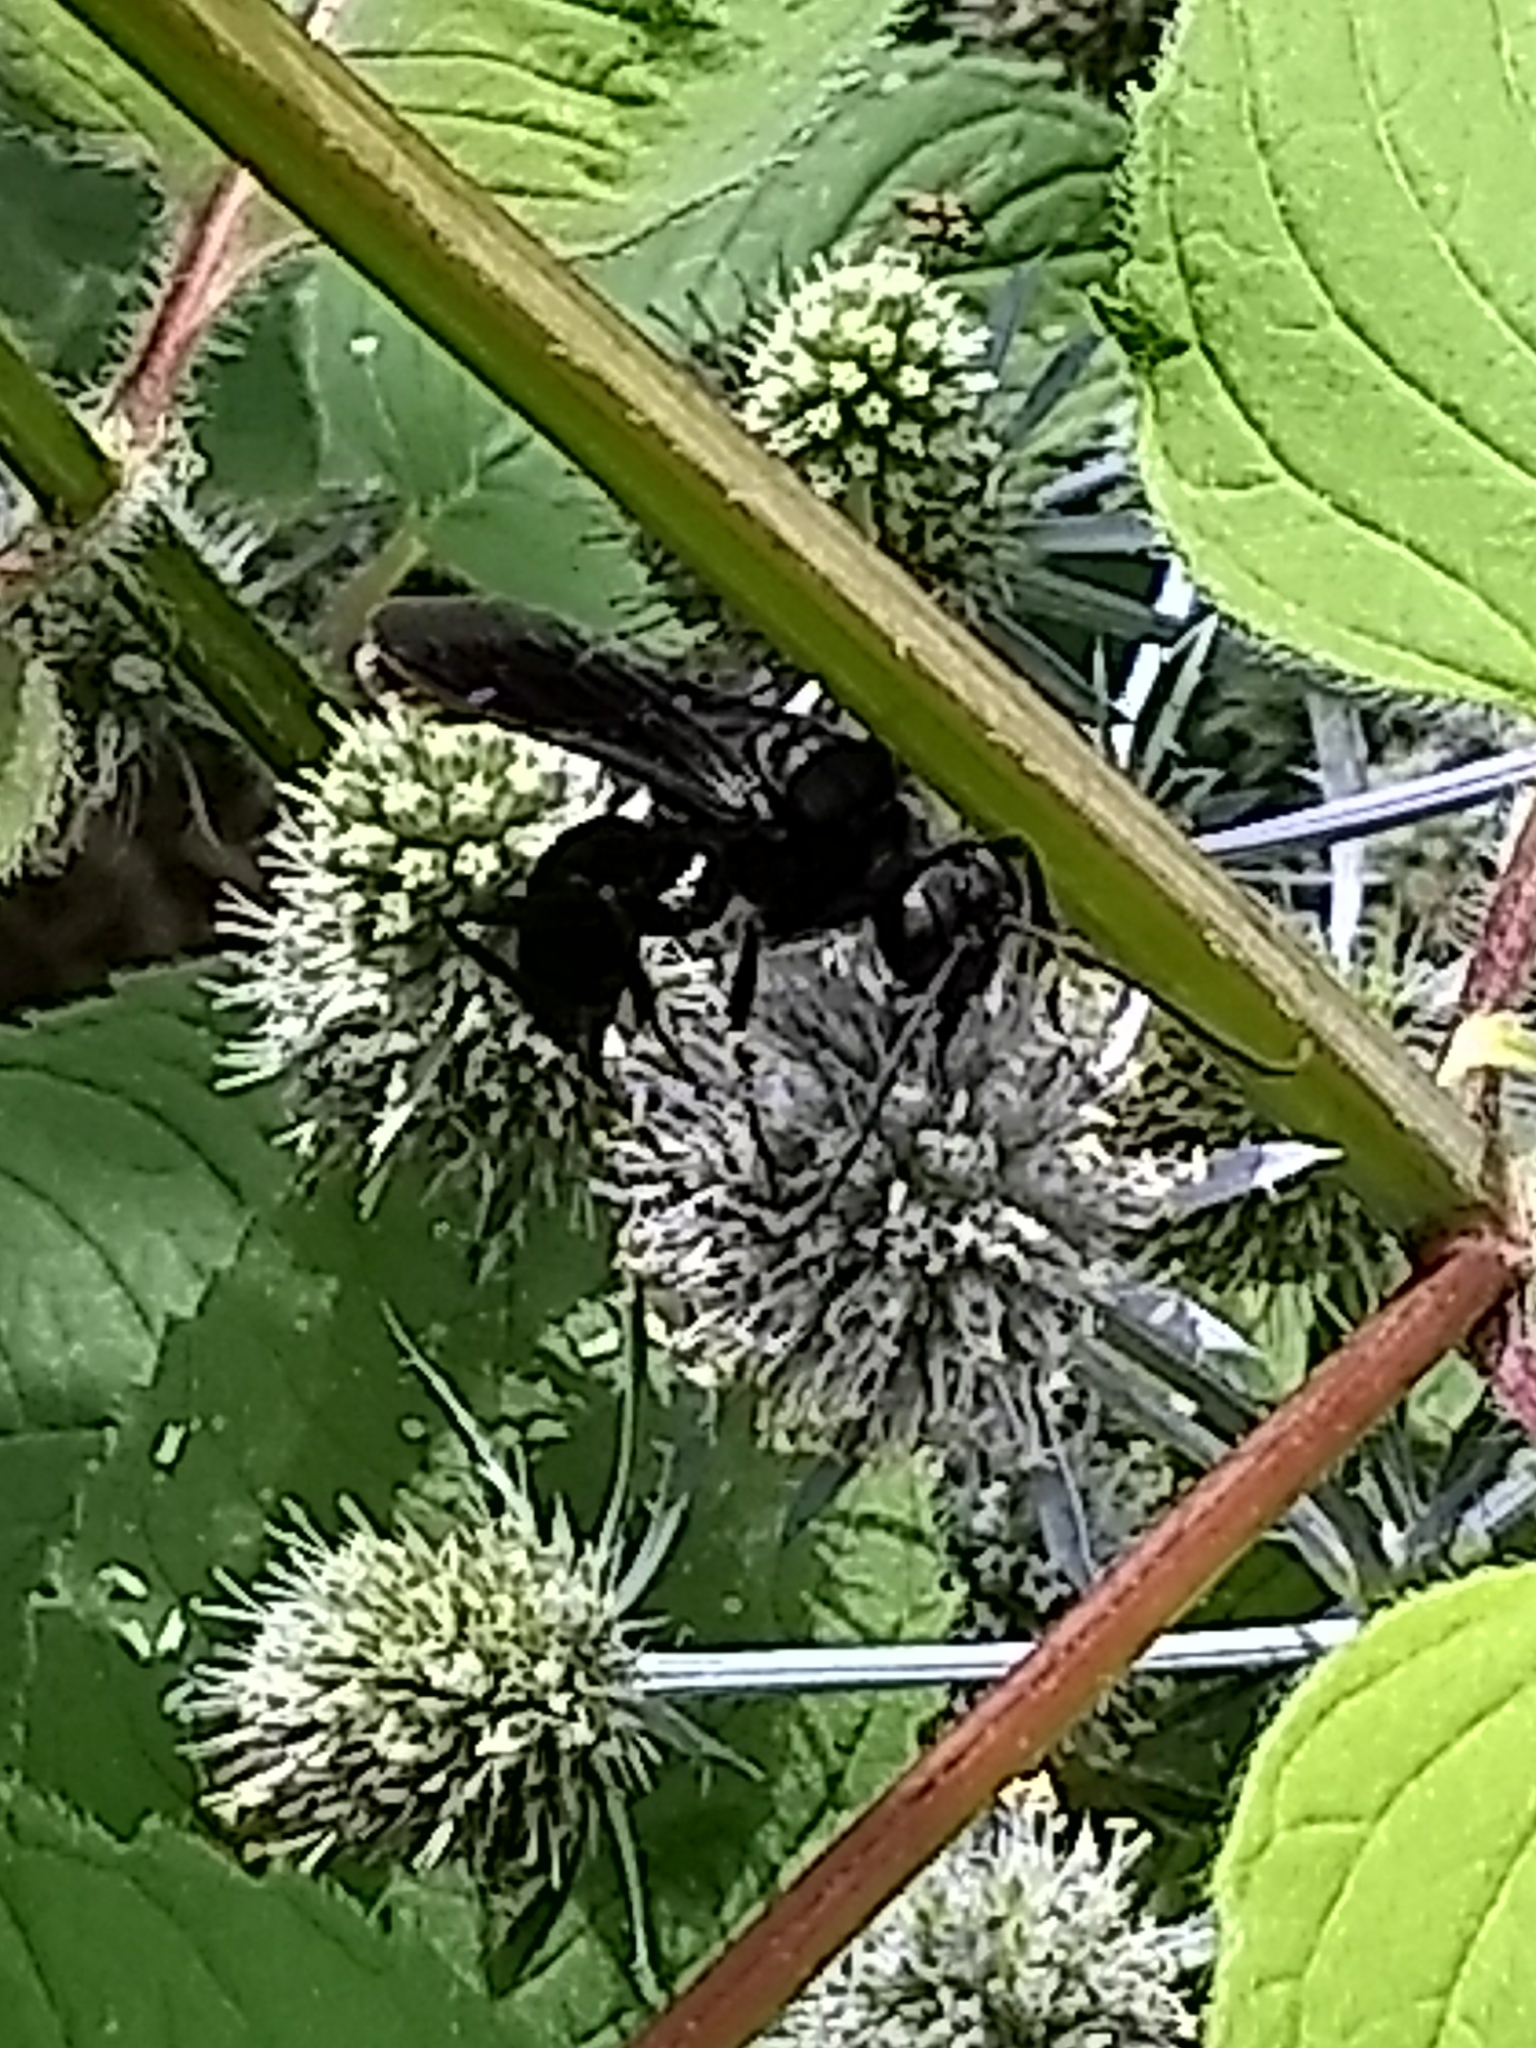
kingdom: Animalia
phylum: Arthropoda
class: Insecta
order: Hymenoptera
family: Sphecidae
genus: Sphex
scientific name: Sphex pensylvanicus
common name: Great black digger wasp
